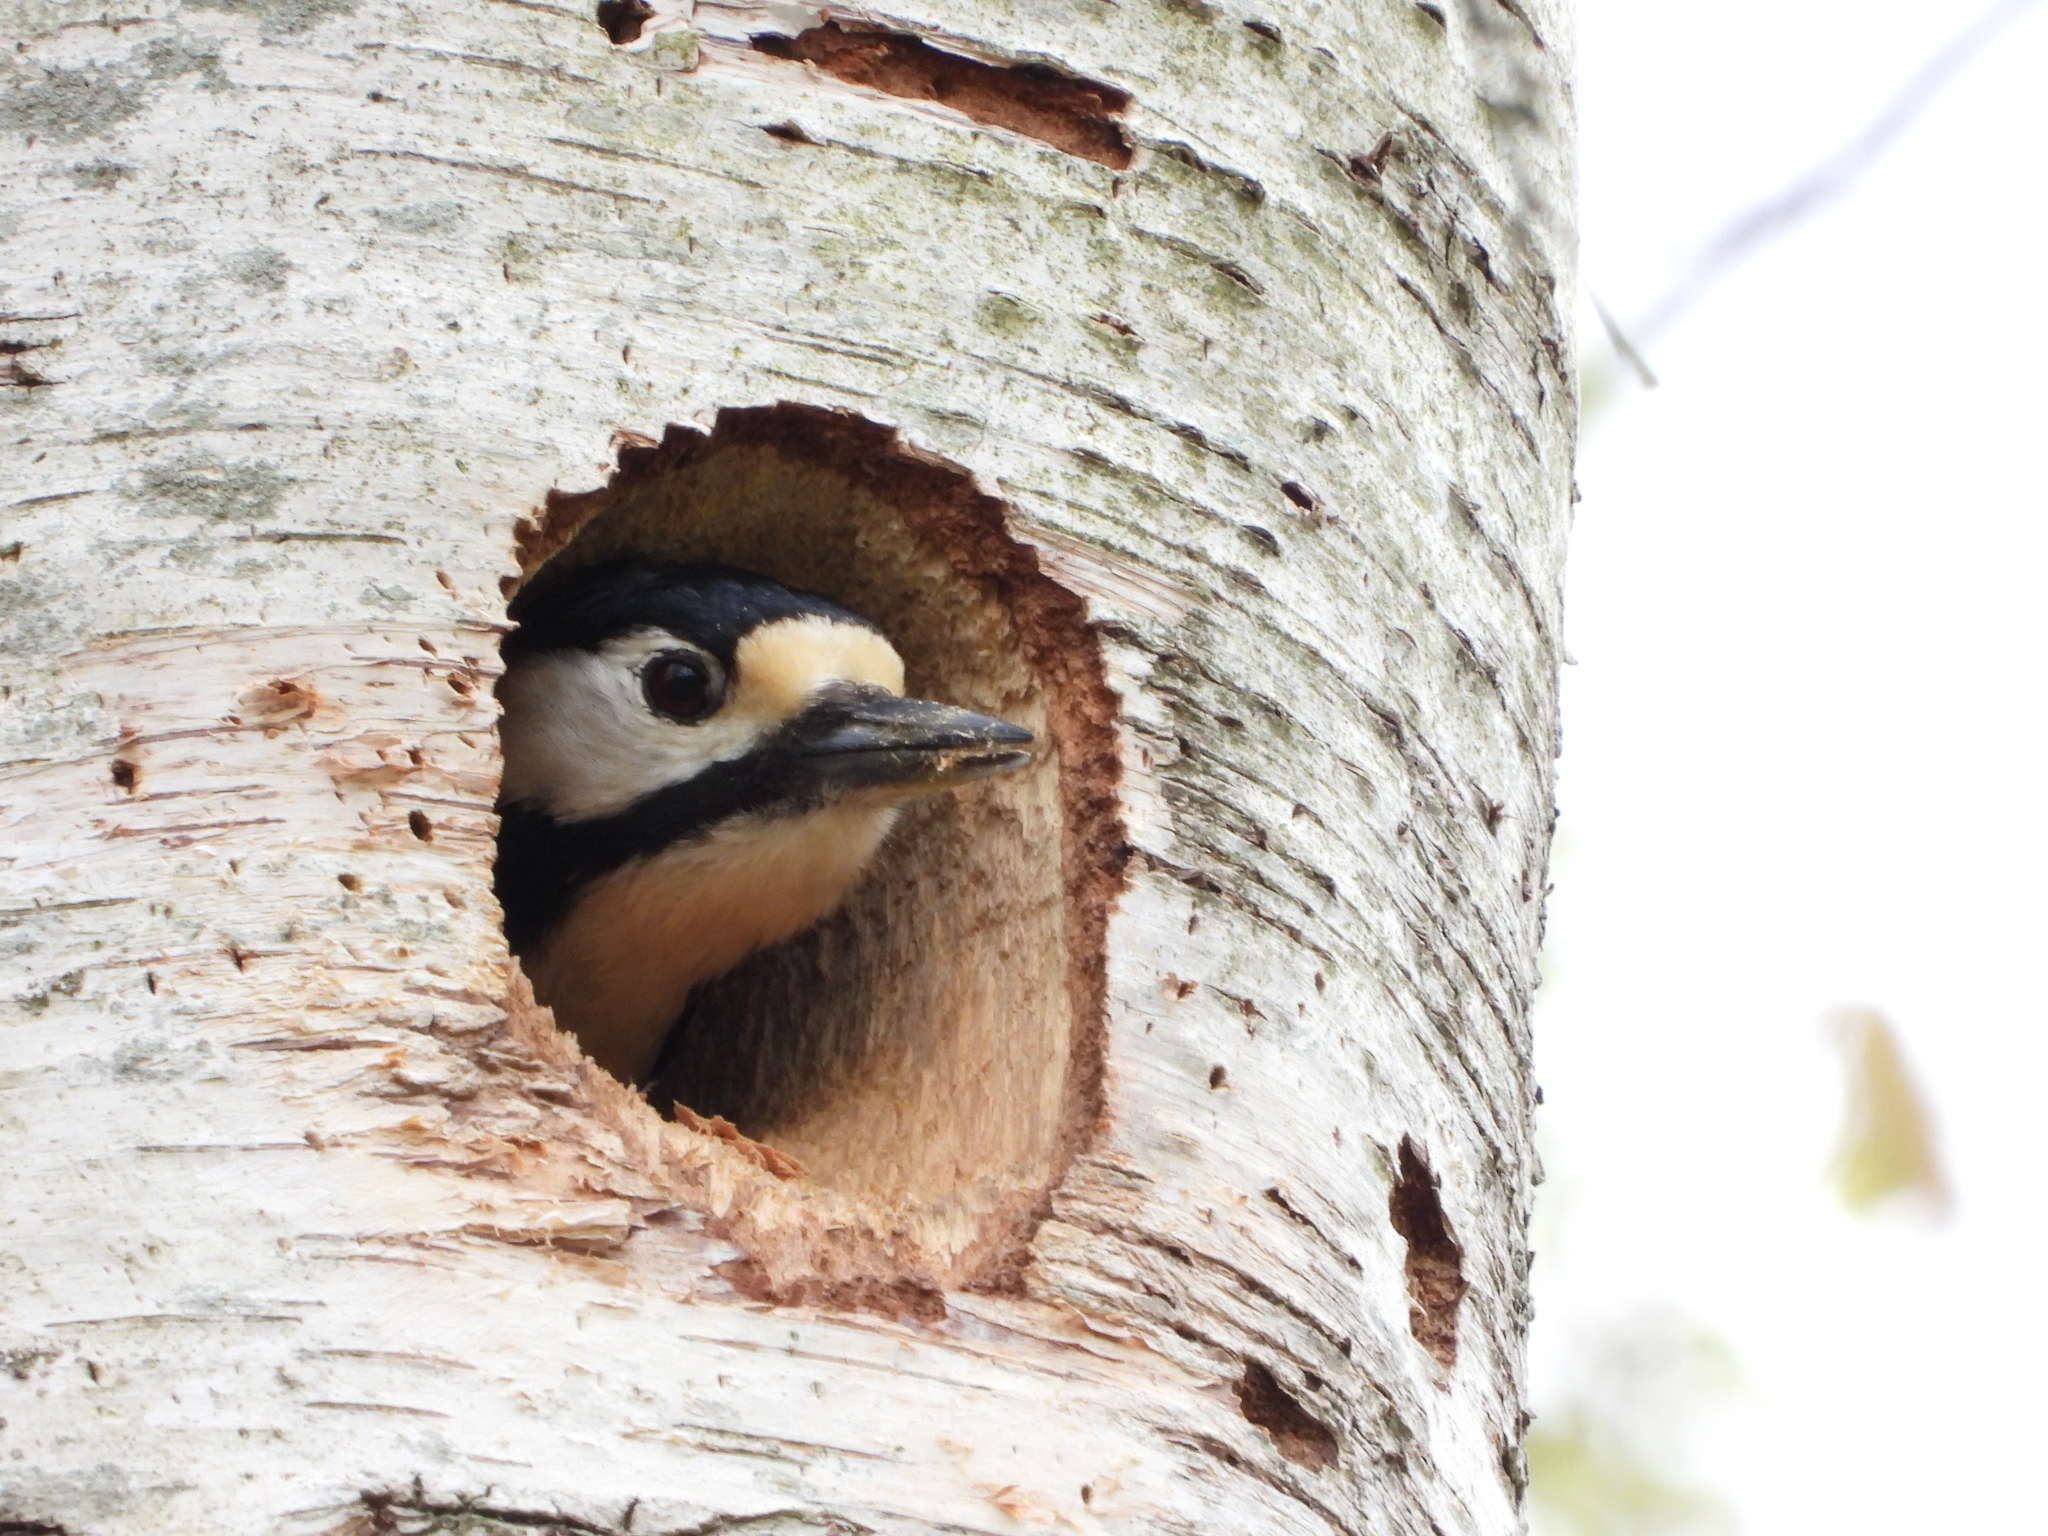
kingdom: Animalia
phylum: Chordata
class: Aves
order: Piciformes
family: Picidae
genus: Dendrocopos
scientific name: Dendrocopos major
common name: Great spotted woodpecker
